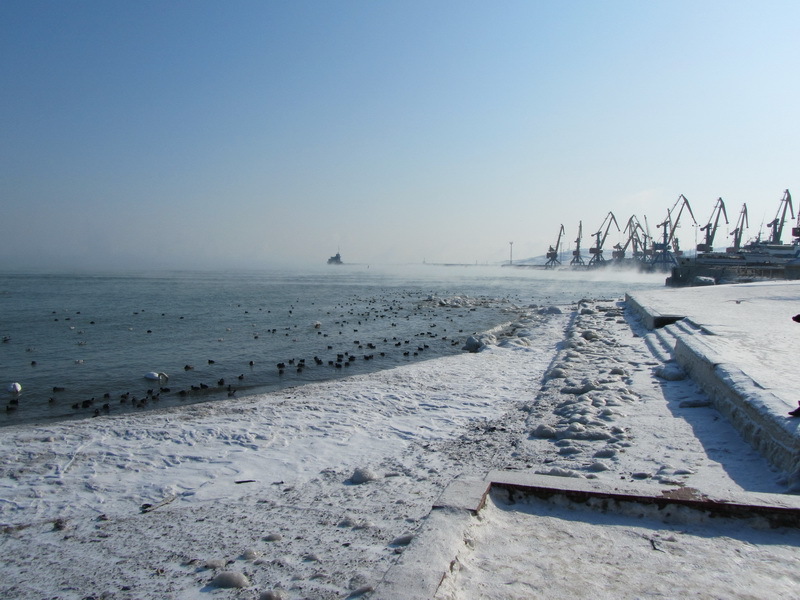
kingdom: Animalia
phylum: Chordata
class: Aves
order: Gruiformes
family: Rallidae
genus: Fulica
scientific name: Fulica atra
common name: Eurasian coot
